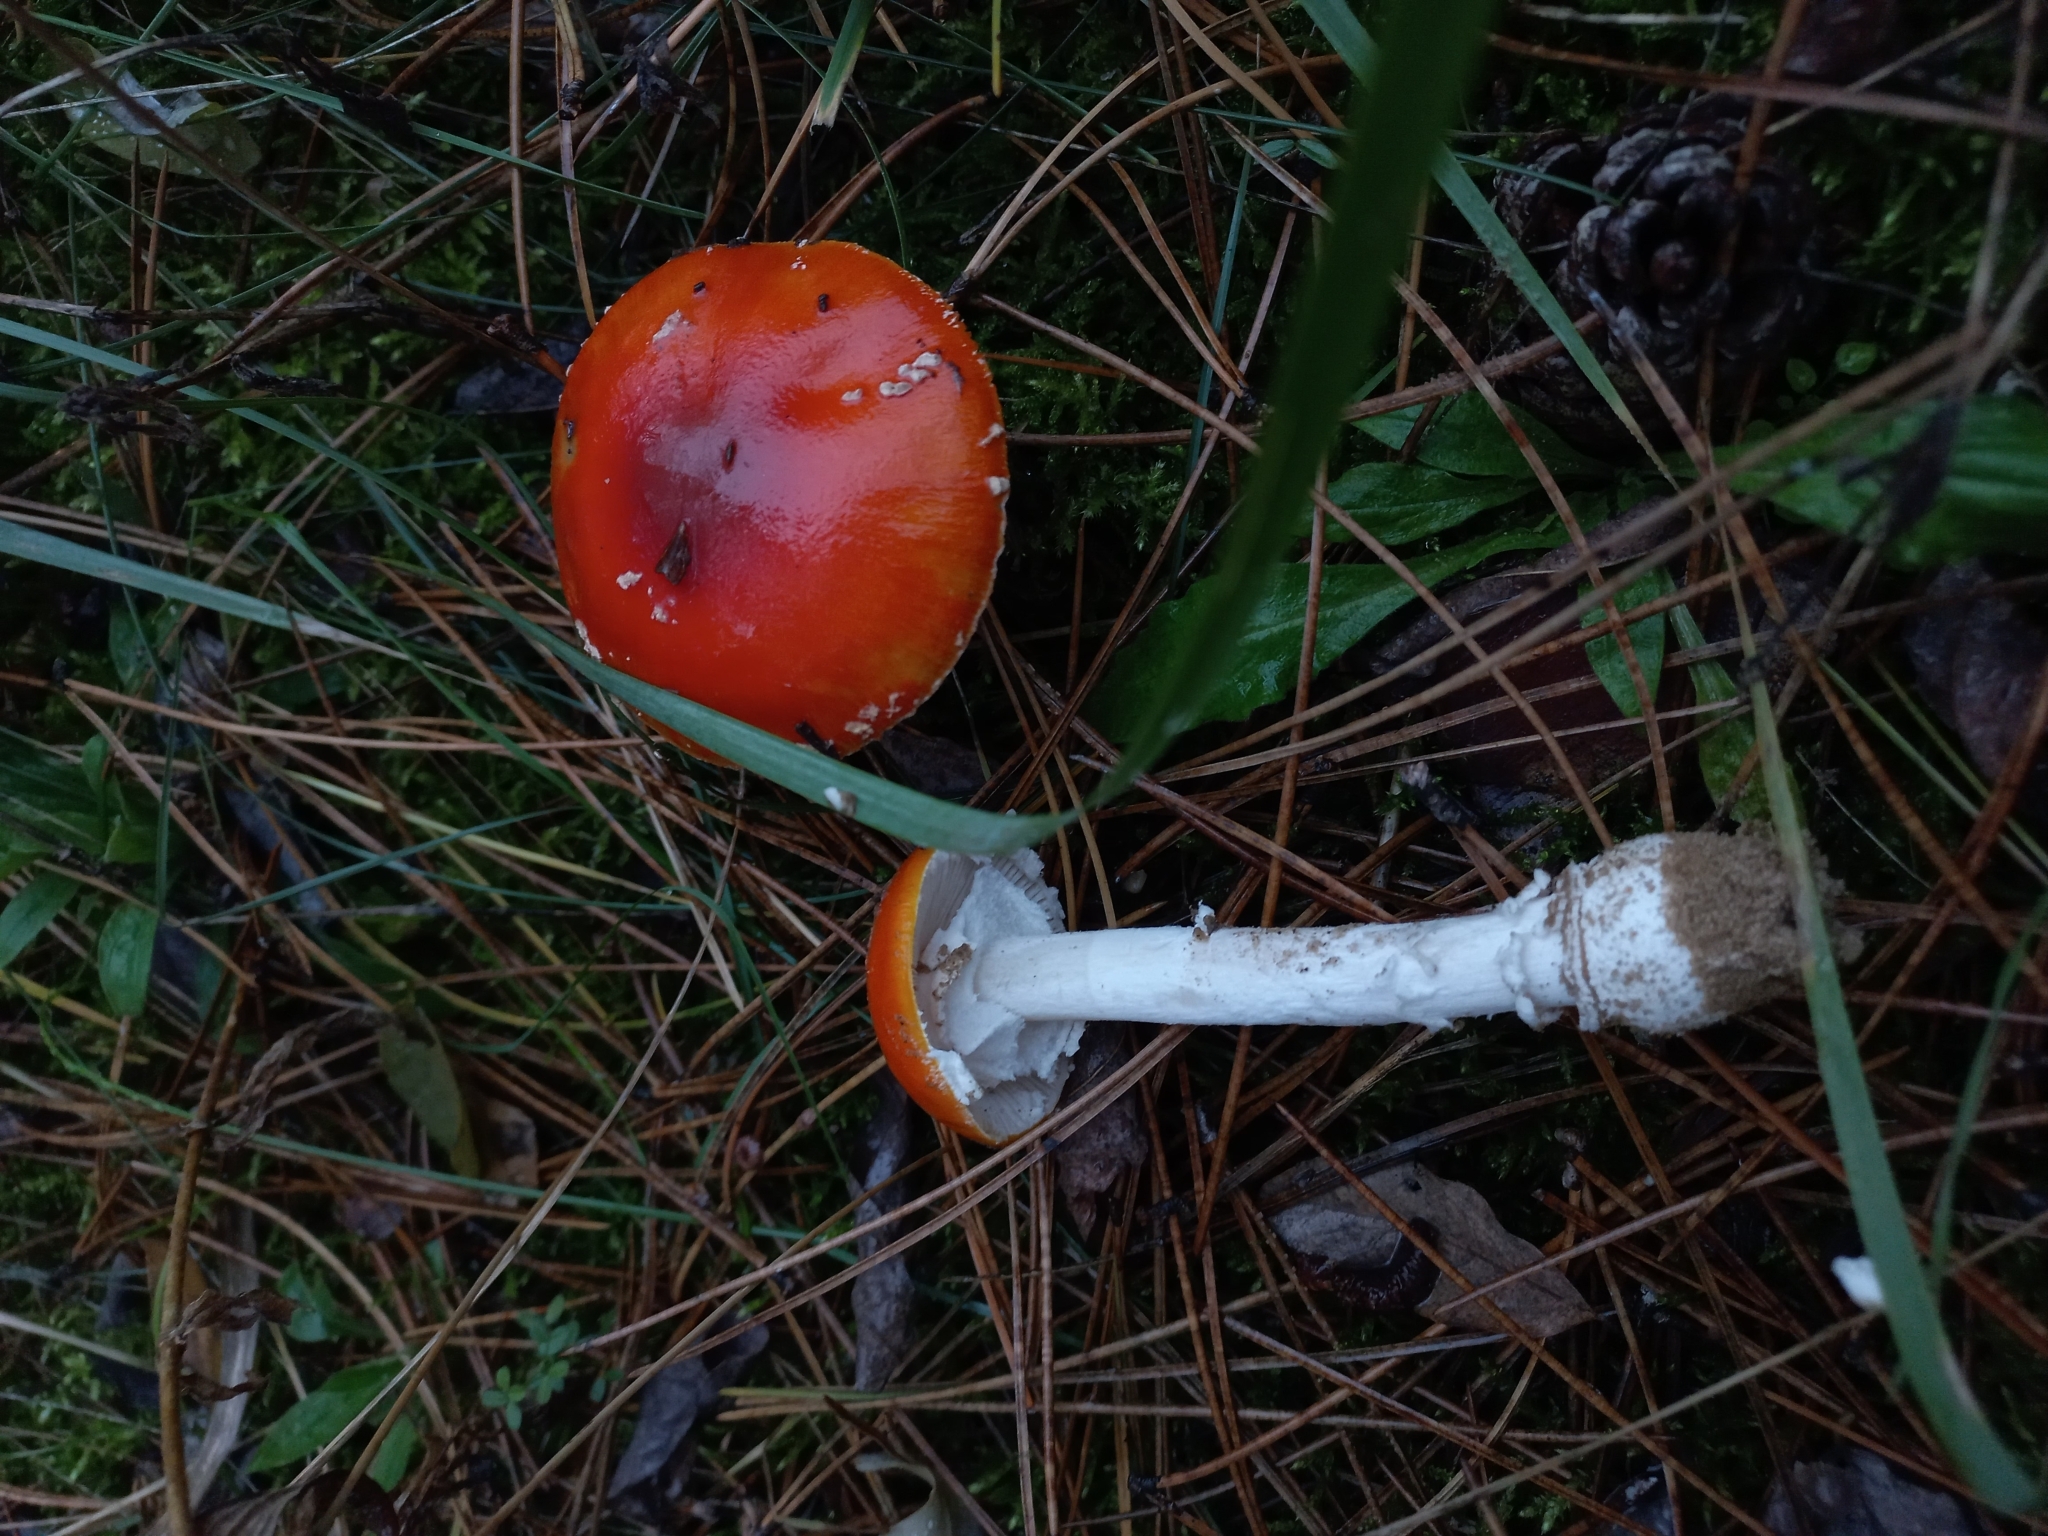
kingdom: Fungi
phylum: Basidiomycota
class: Agaricomycetes
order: Agaricales
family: Amanitaceae
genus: Amanita
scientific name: Amanita muscaria
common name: Fly agaric
